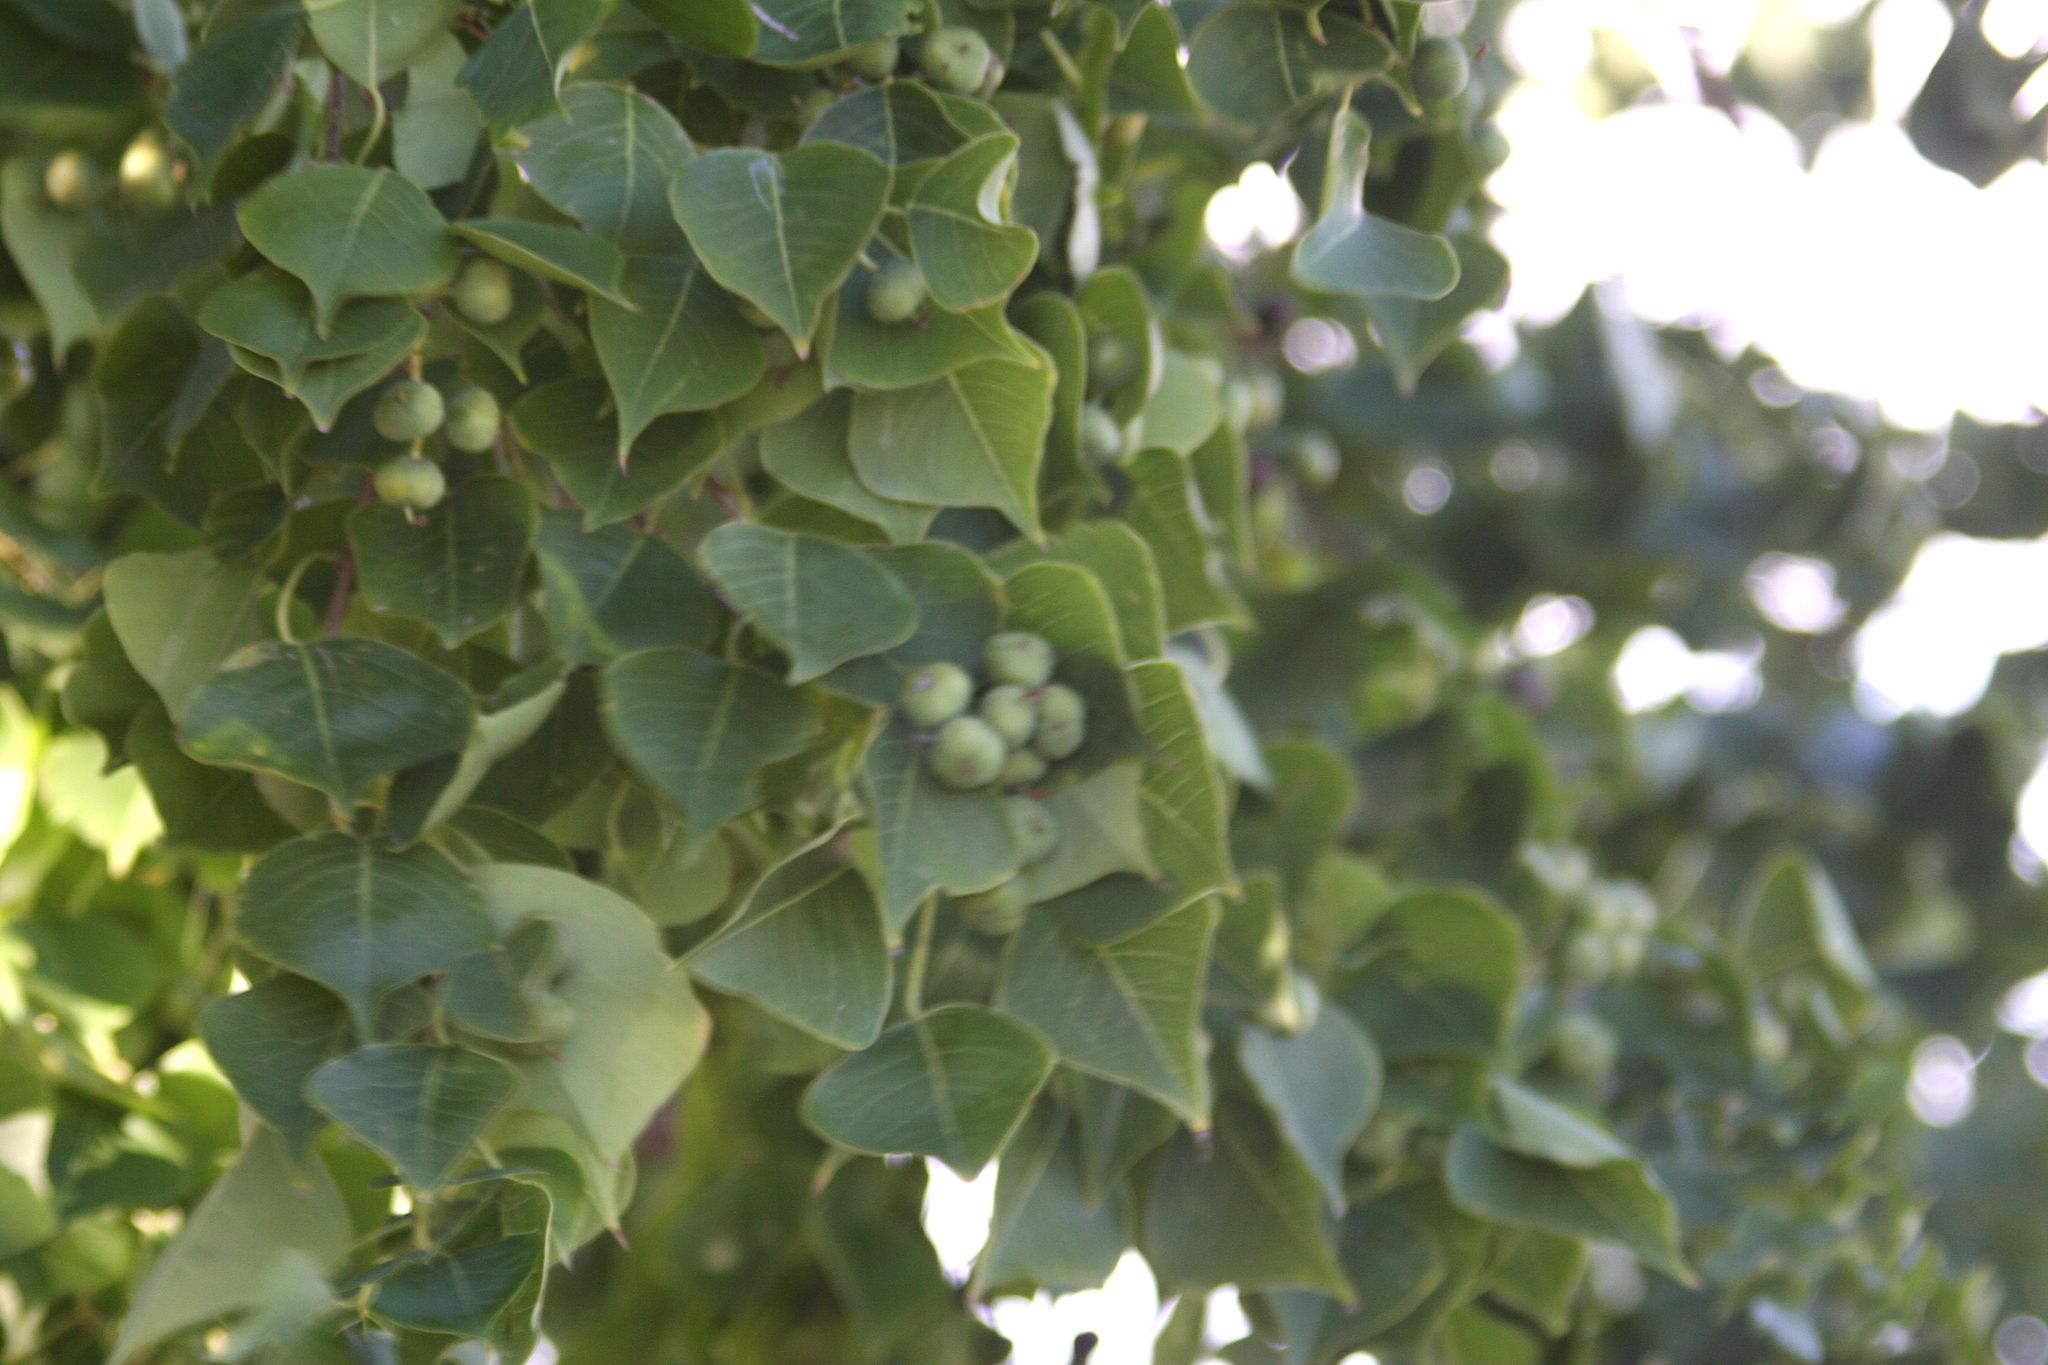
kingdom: Plantae
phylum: Tracheophyta
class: Magnoliopsida
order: Malpighiales
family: Euphorbiaceae
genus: Triadica
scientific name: Triadica sebifera
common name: Chinese tallow
